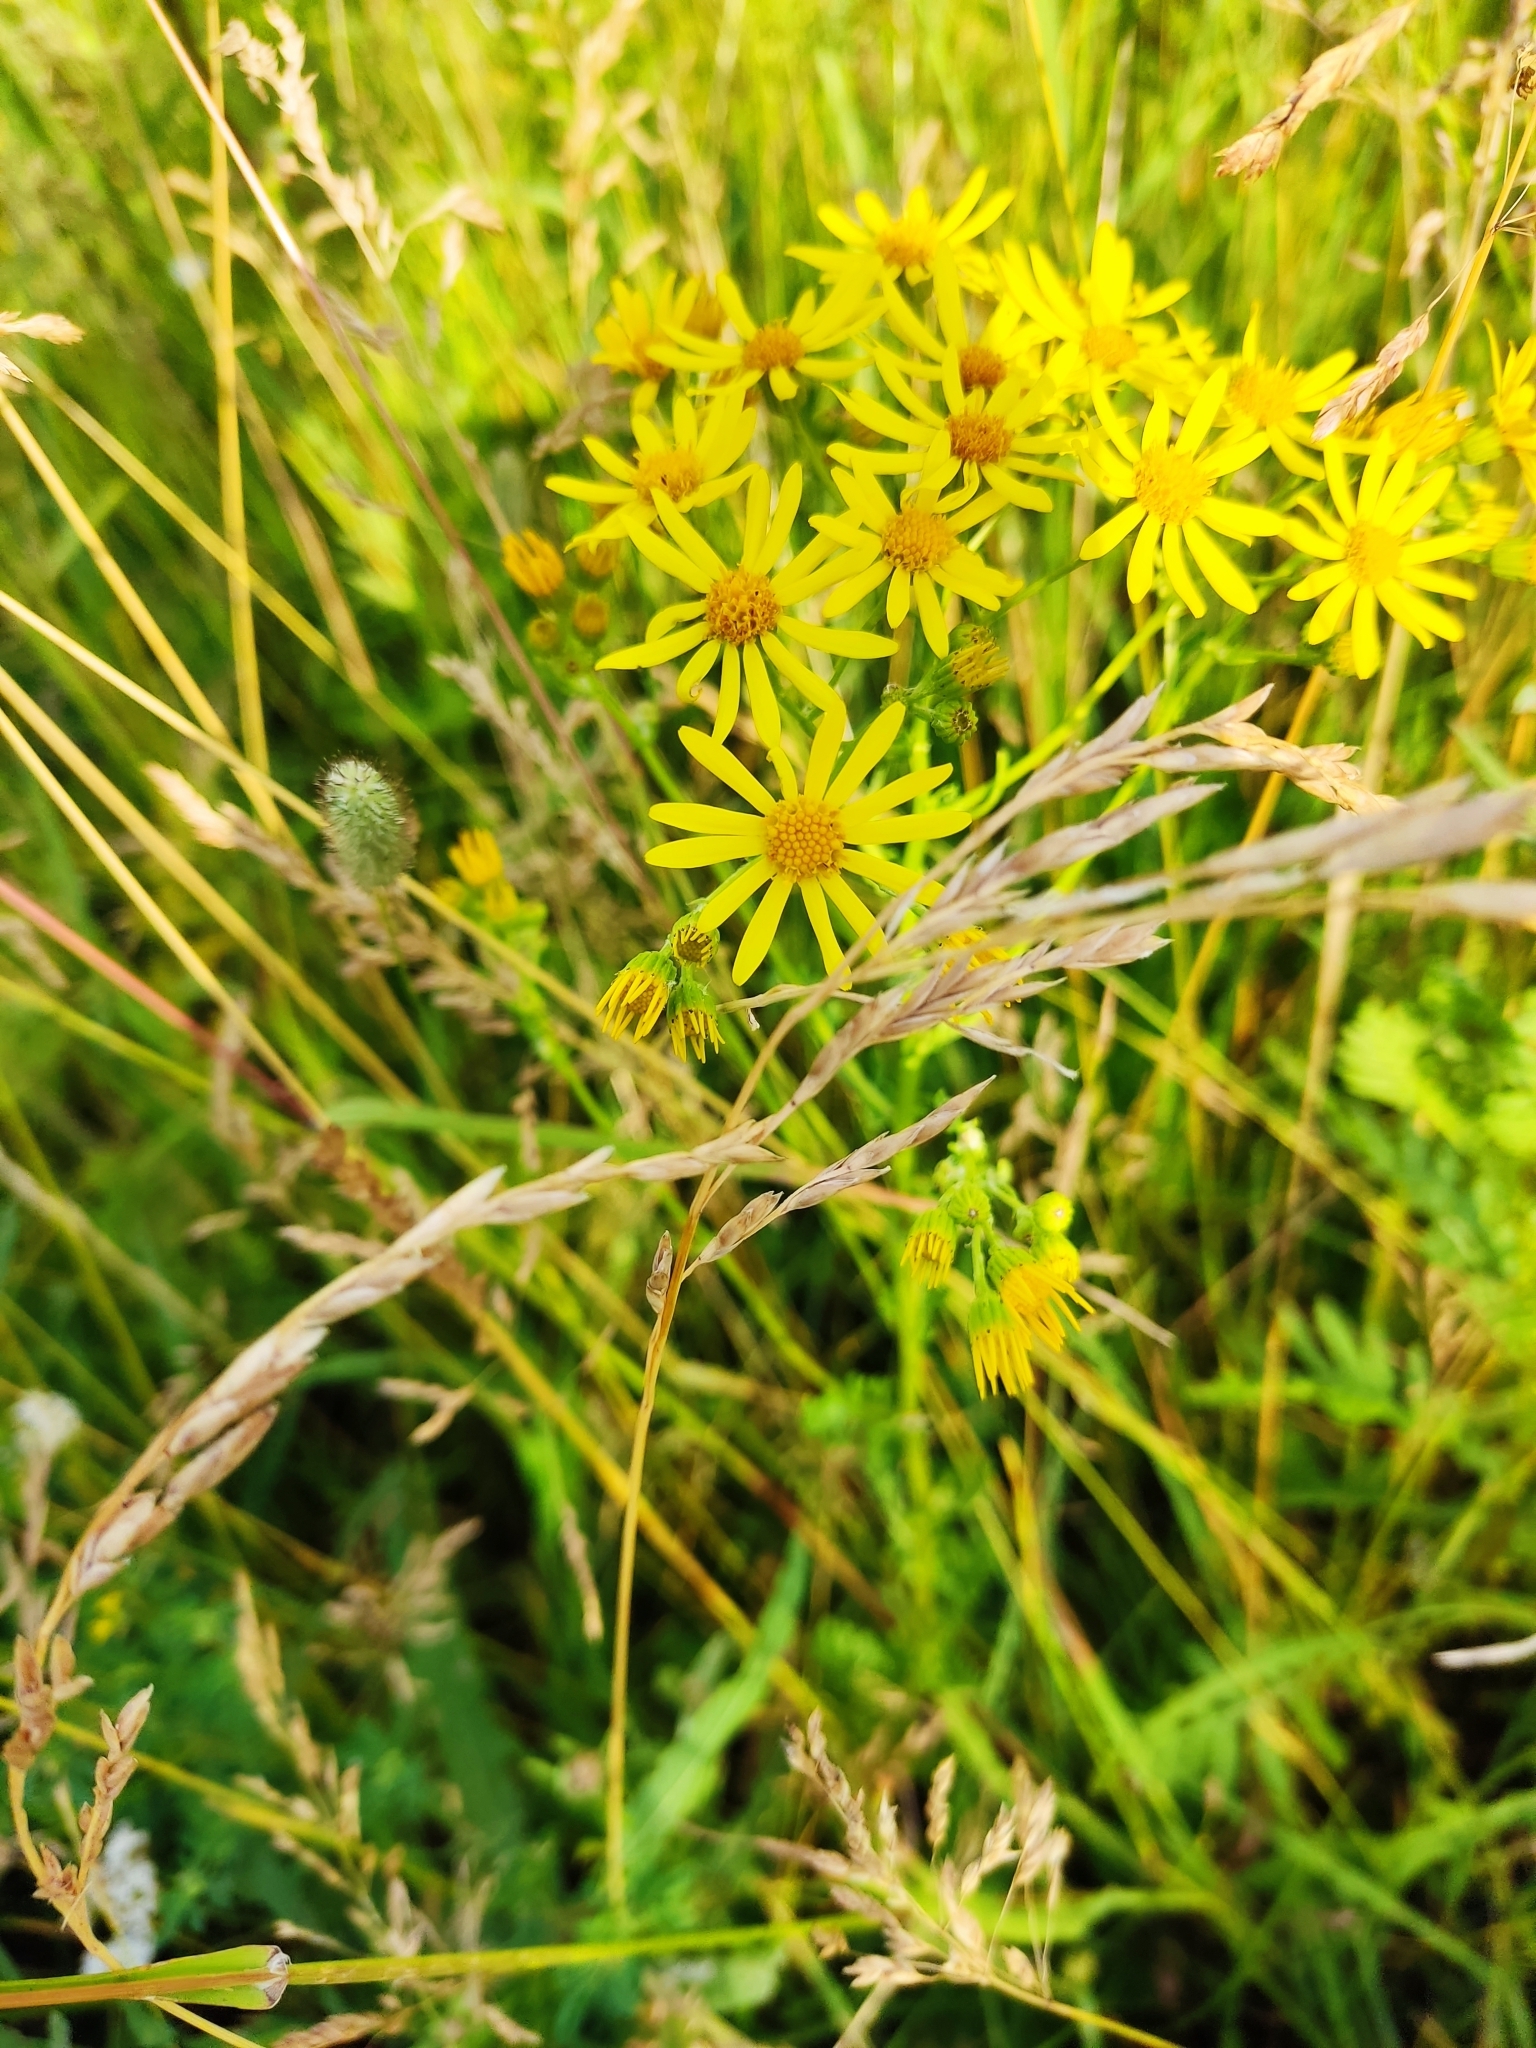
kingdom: Plantae
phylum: Tracheophyta
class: Magnoliopsida
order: Asterales
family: Asteraceae
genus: Jacobaea
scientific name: Jacobaea vulgaris
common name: Stinking willie
